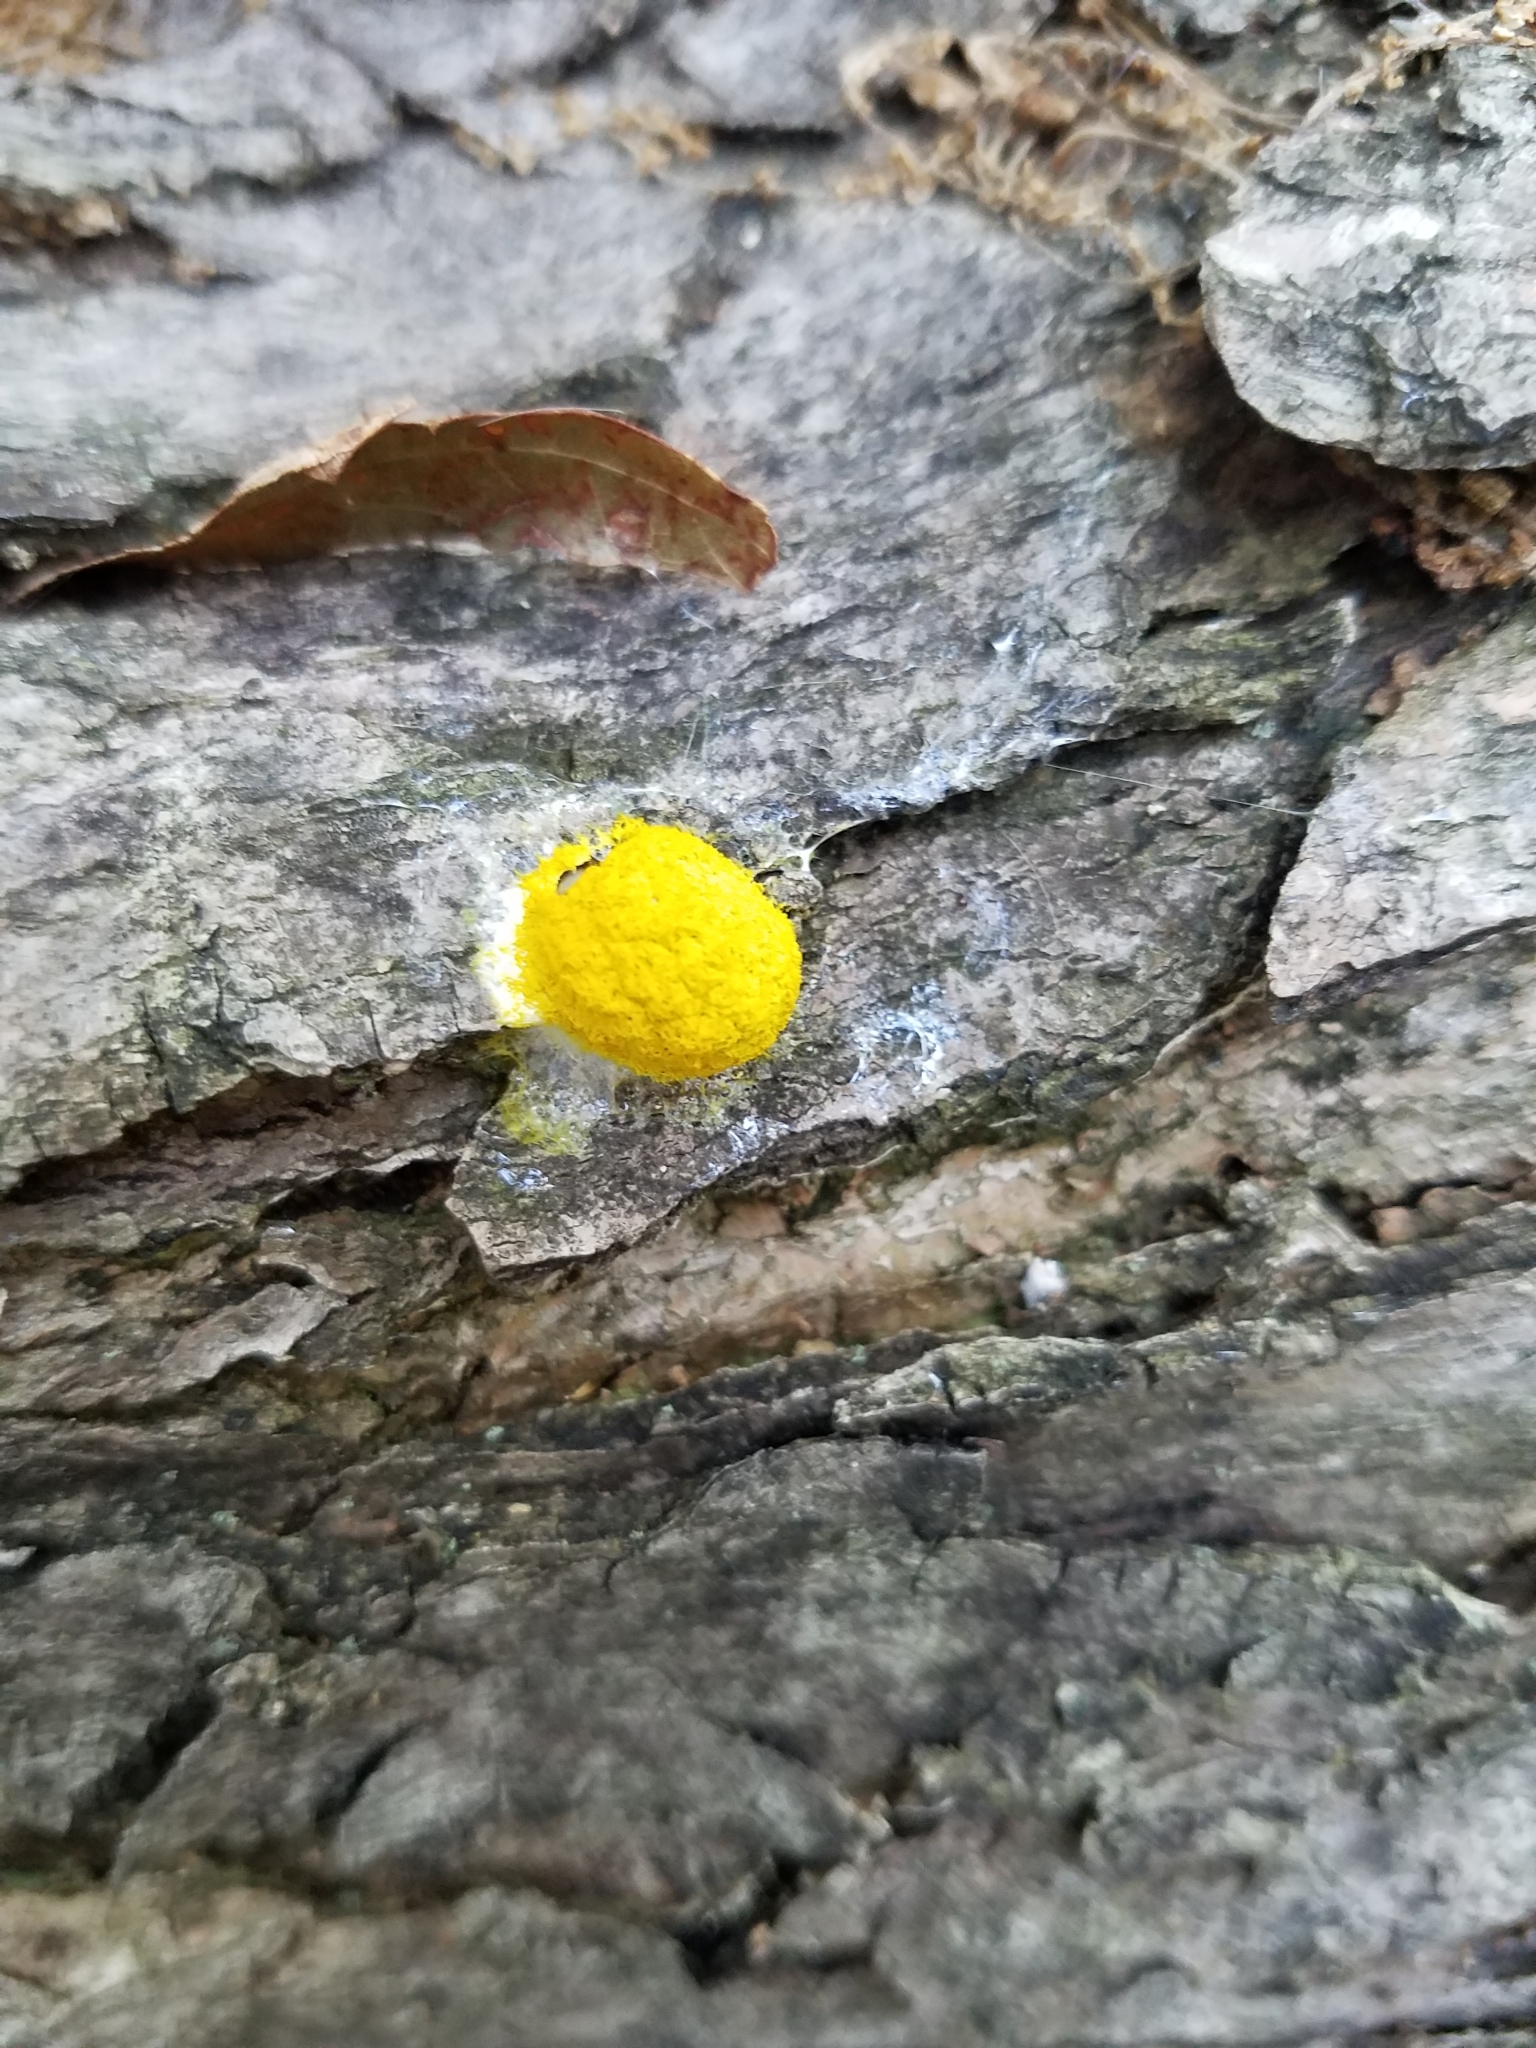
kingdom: Protozoa
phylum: Mycetozoa
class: Myxomycetes
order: Physarales
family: Physaraceae
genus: Fuligo
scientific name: Fuligo septica
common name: Dog vomit slime mold
